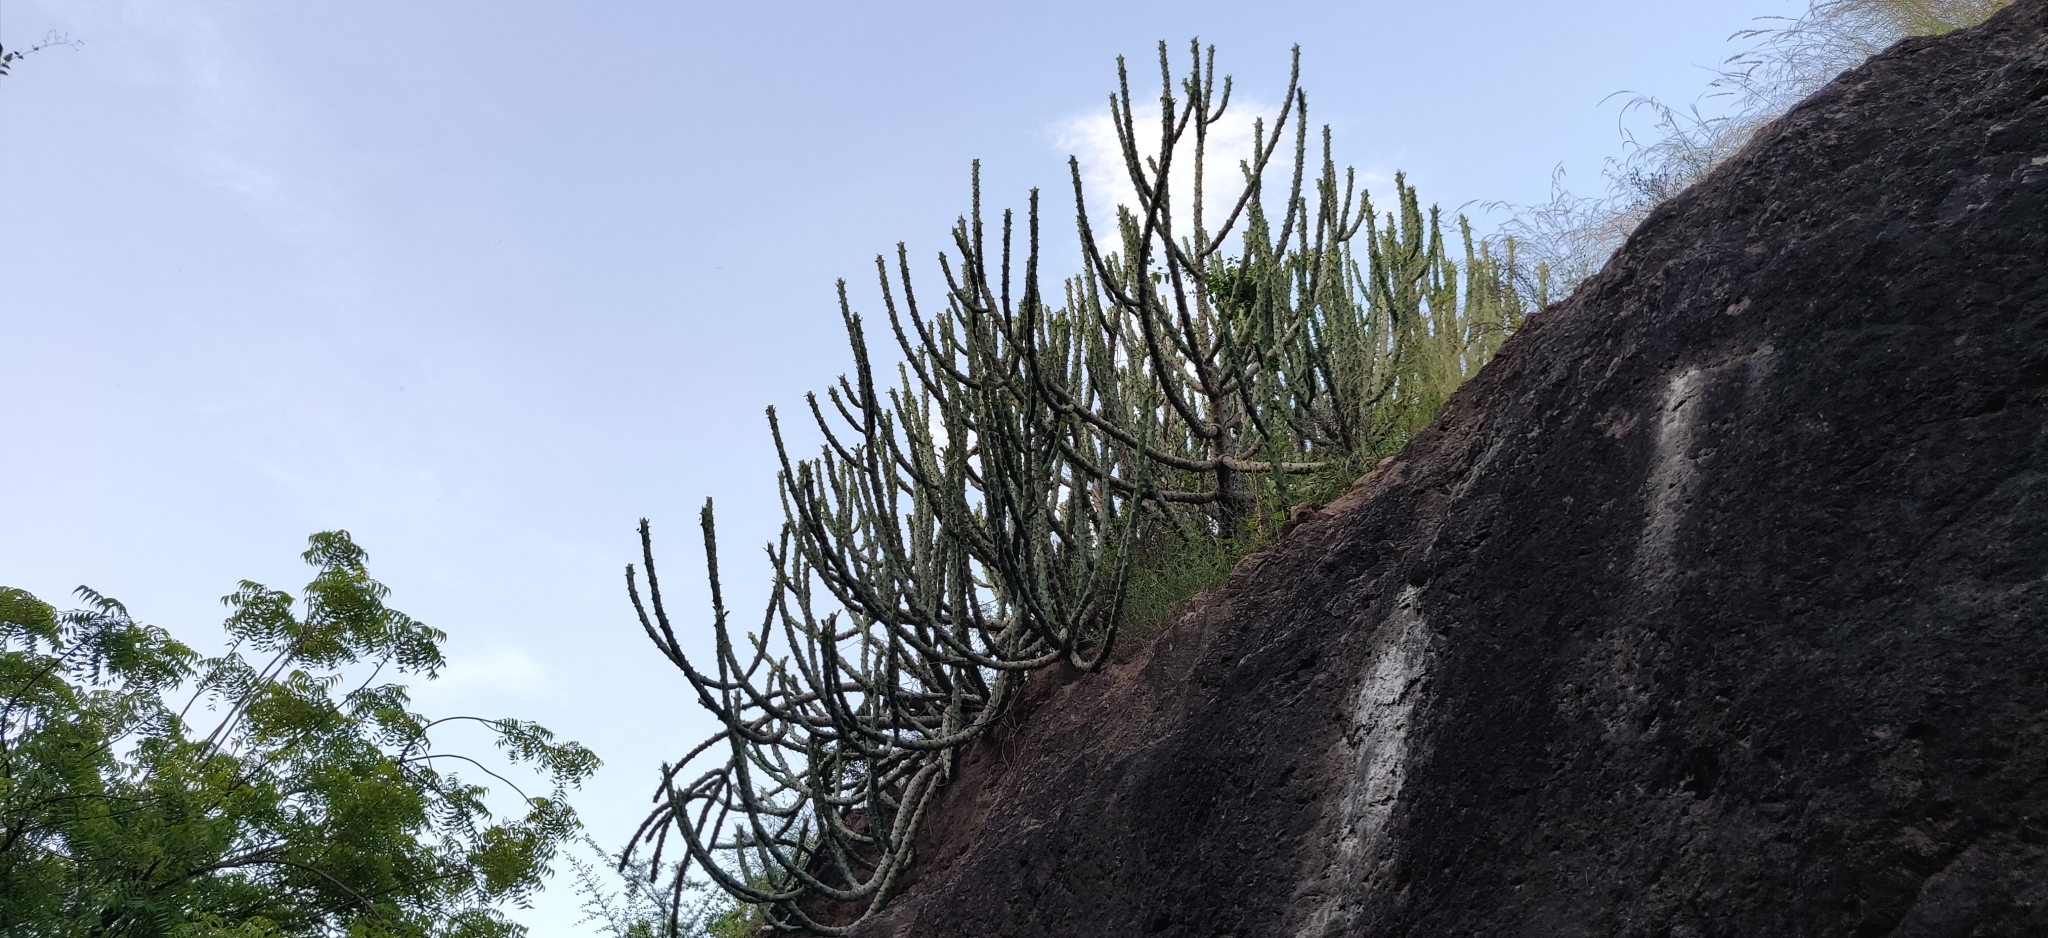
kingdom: Plantae
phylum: Tracheophyta
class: Magnoliopsida
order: Malpighiales
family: Euphorbiaceae
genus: Euphorbia
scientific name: Euphorbia caducifolia
